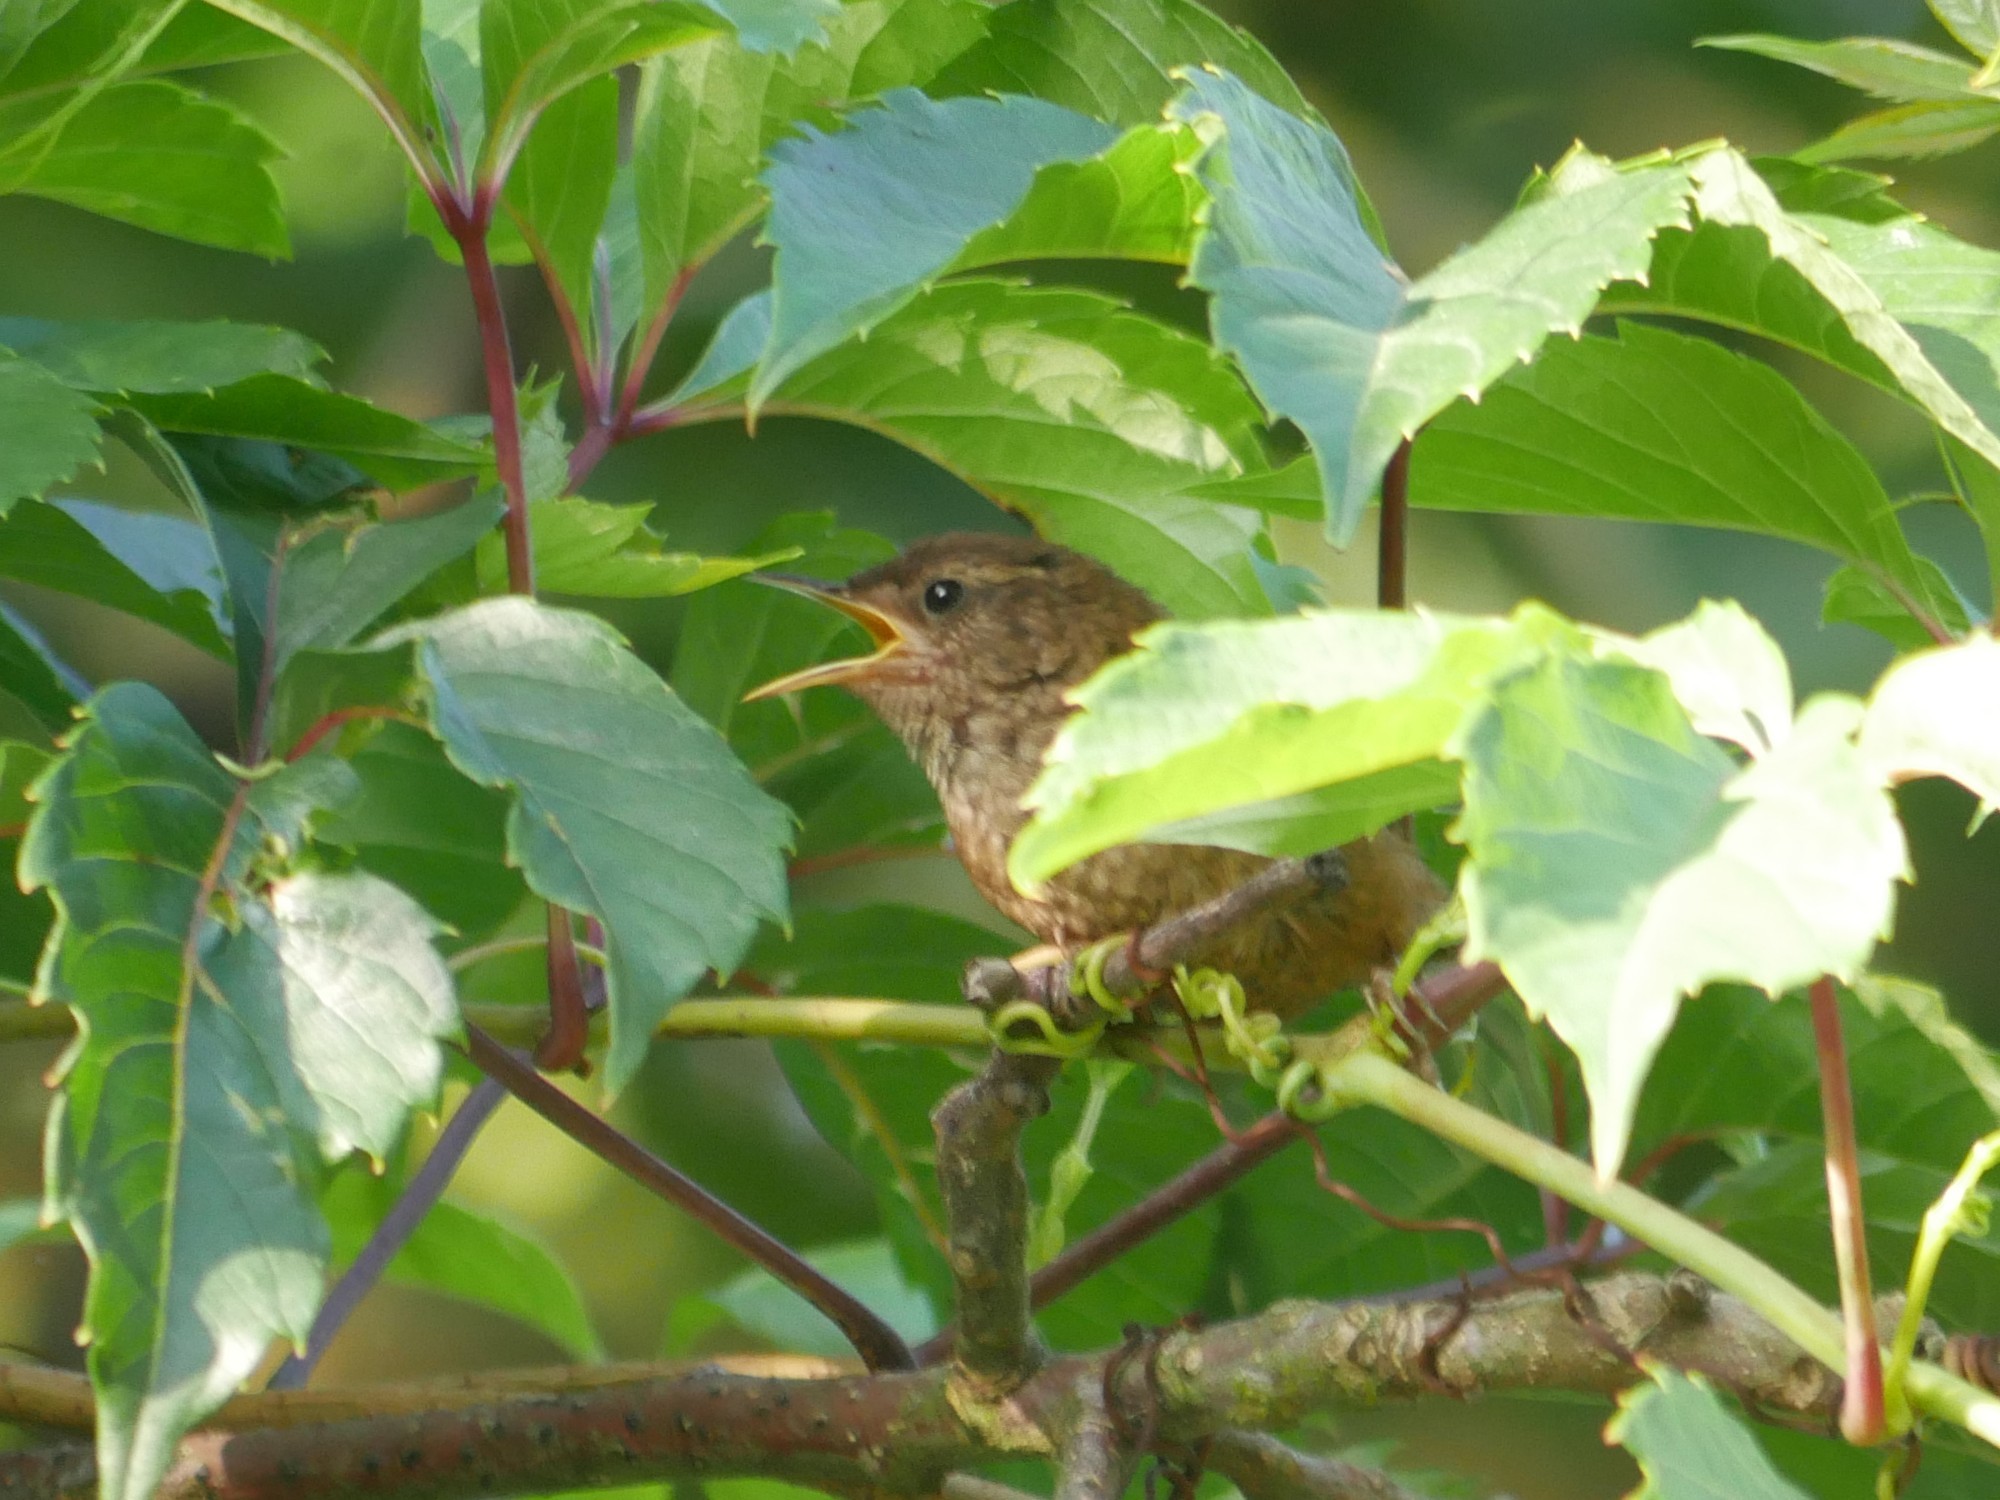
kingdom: Animalia
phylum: Chordata
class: Aves
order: Passeriformes
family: Troglodytidae
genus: Troglodytes
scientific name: Troglodytes troglodytes
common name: Eurasian wren
